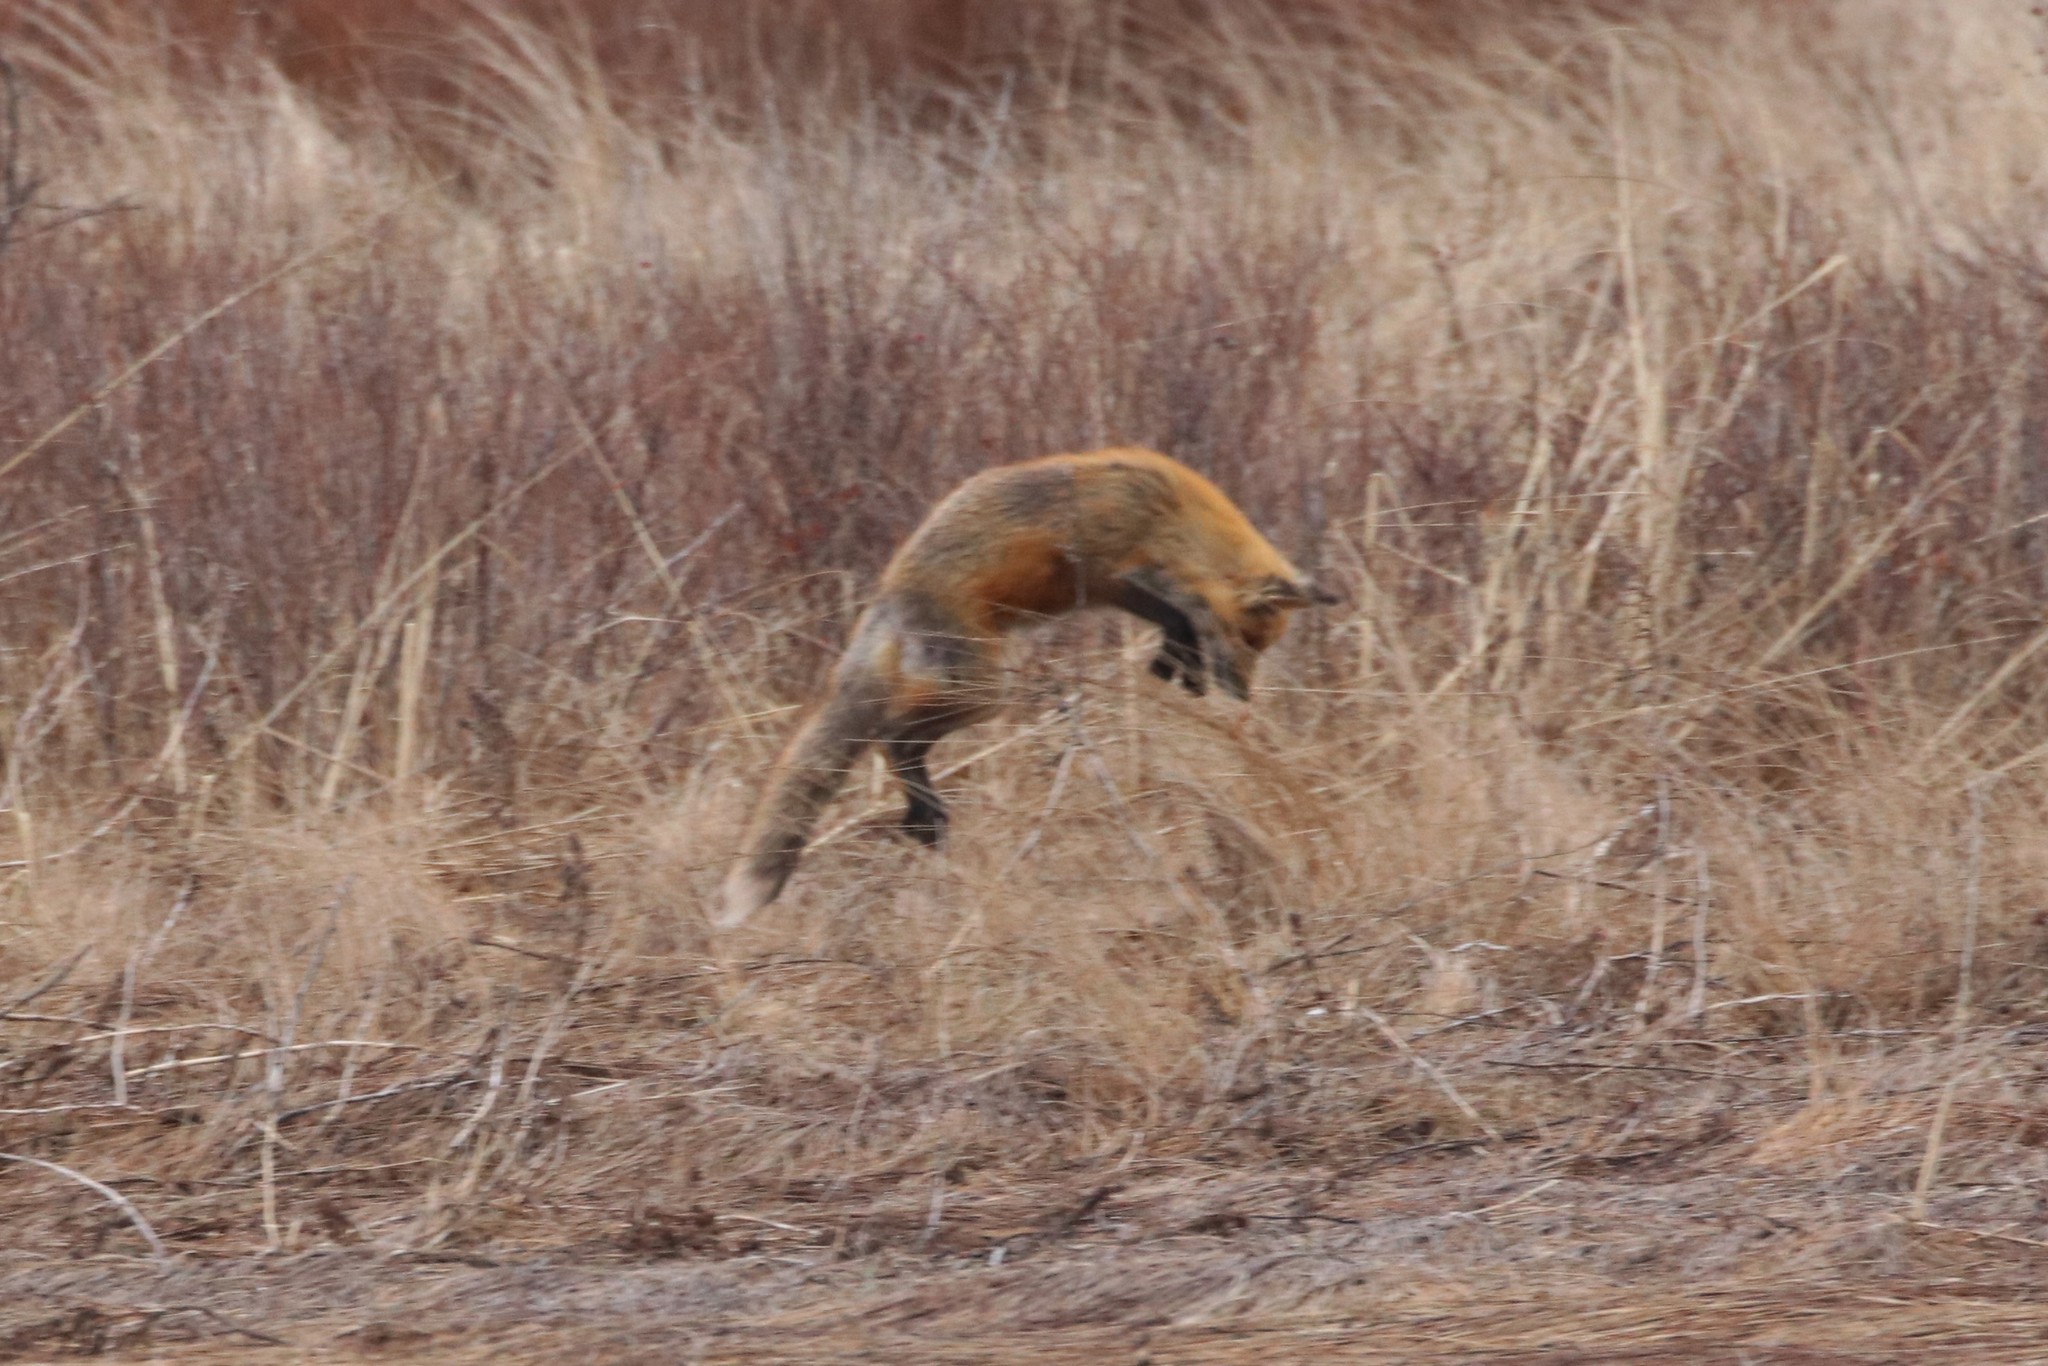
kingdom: Animalia
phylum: Chordata
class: Mammalia
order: Carnivora
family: Canidae
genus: Vulpes
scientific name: Vulpes vulpes
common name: Red fox
